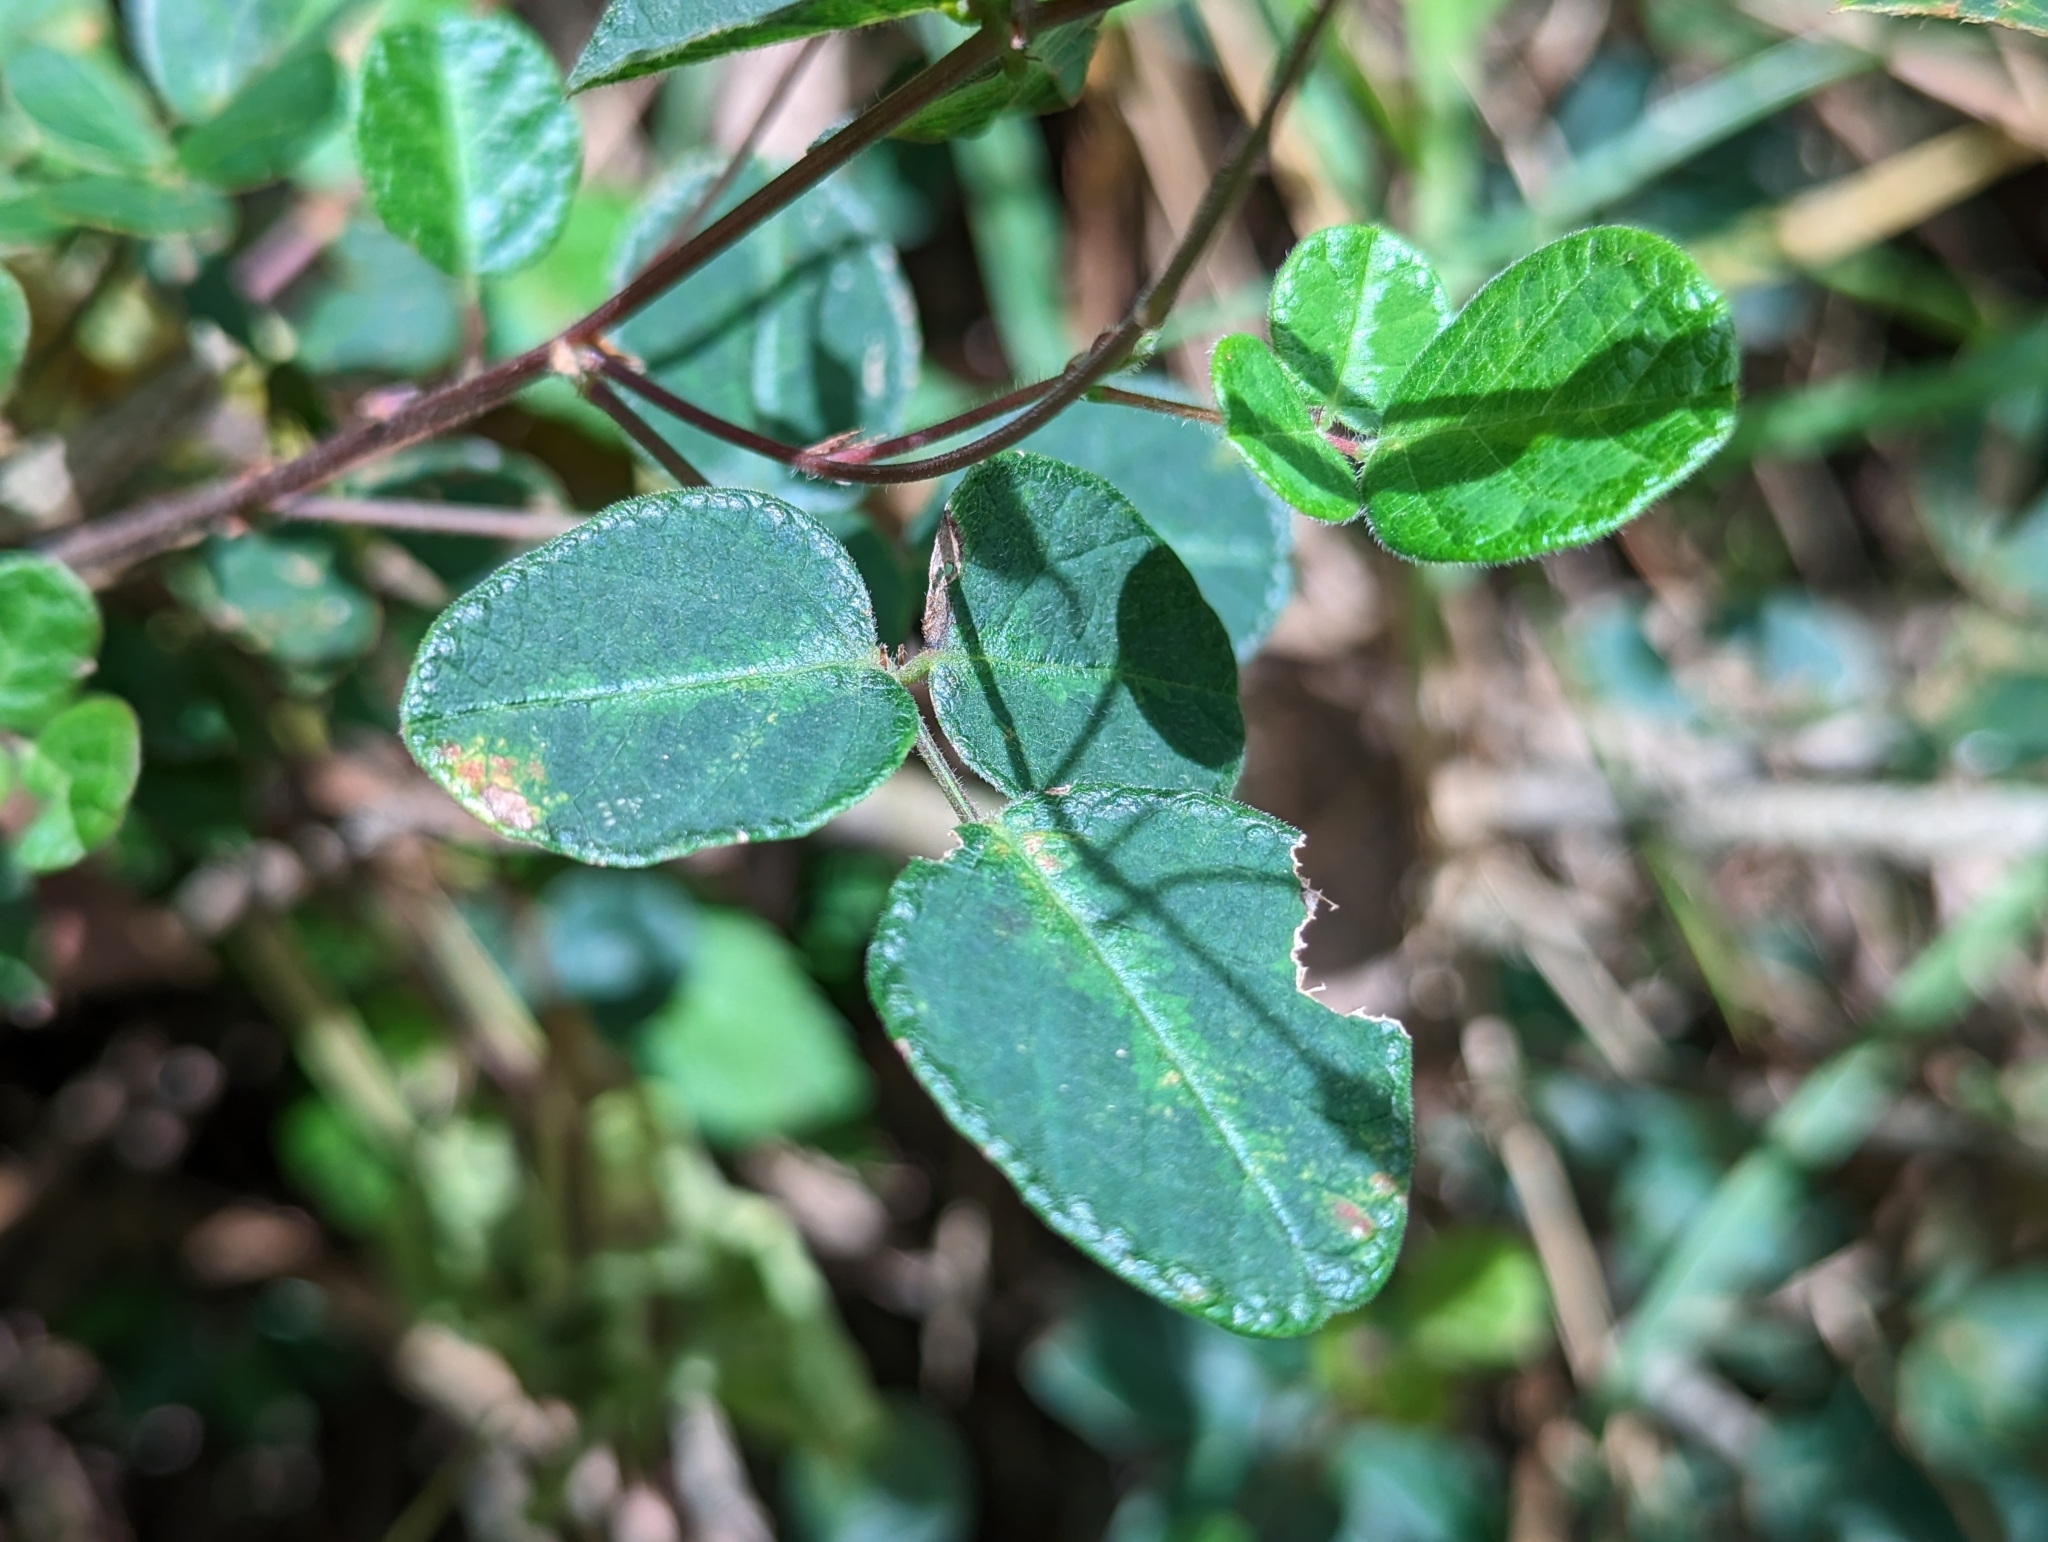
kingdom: Plantae
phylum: Tracheophyta
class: Magnoliopsida
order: Fabales
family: Fabaceae
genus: Desmodium
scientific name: Desmodium incanum
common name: Tickclover
